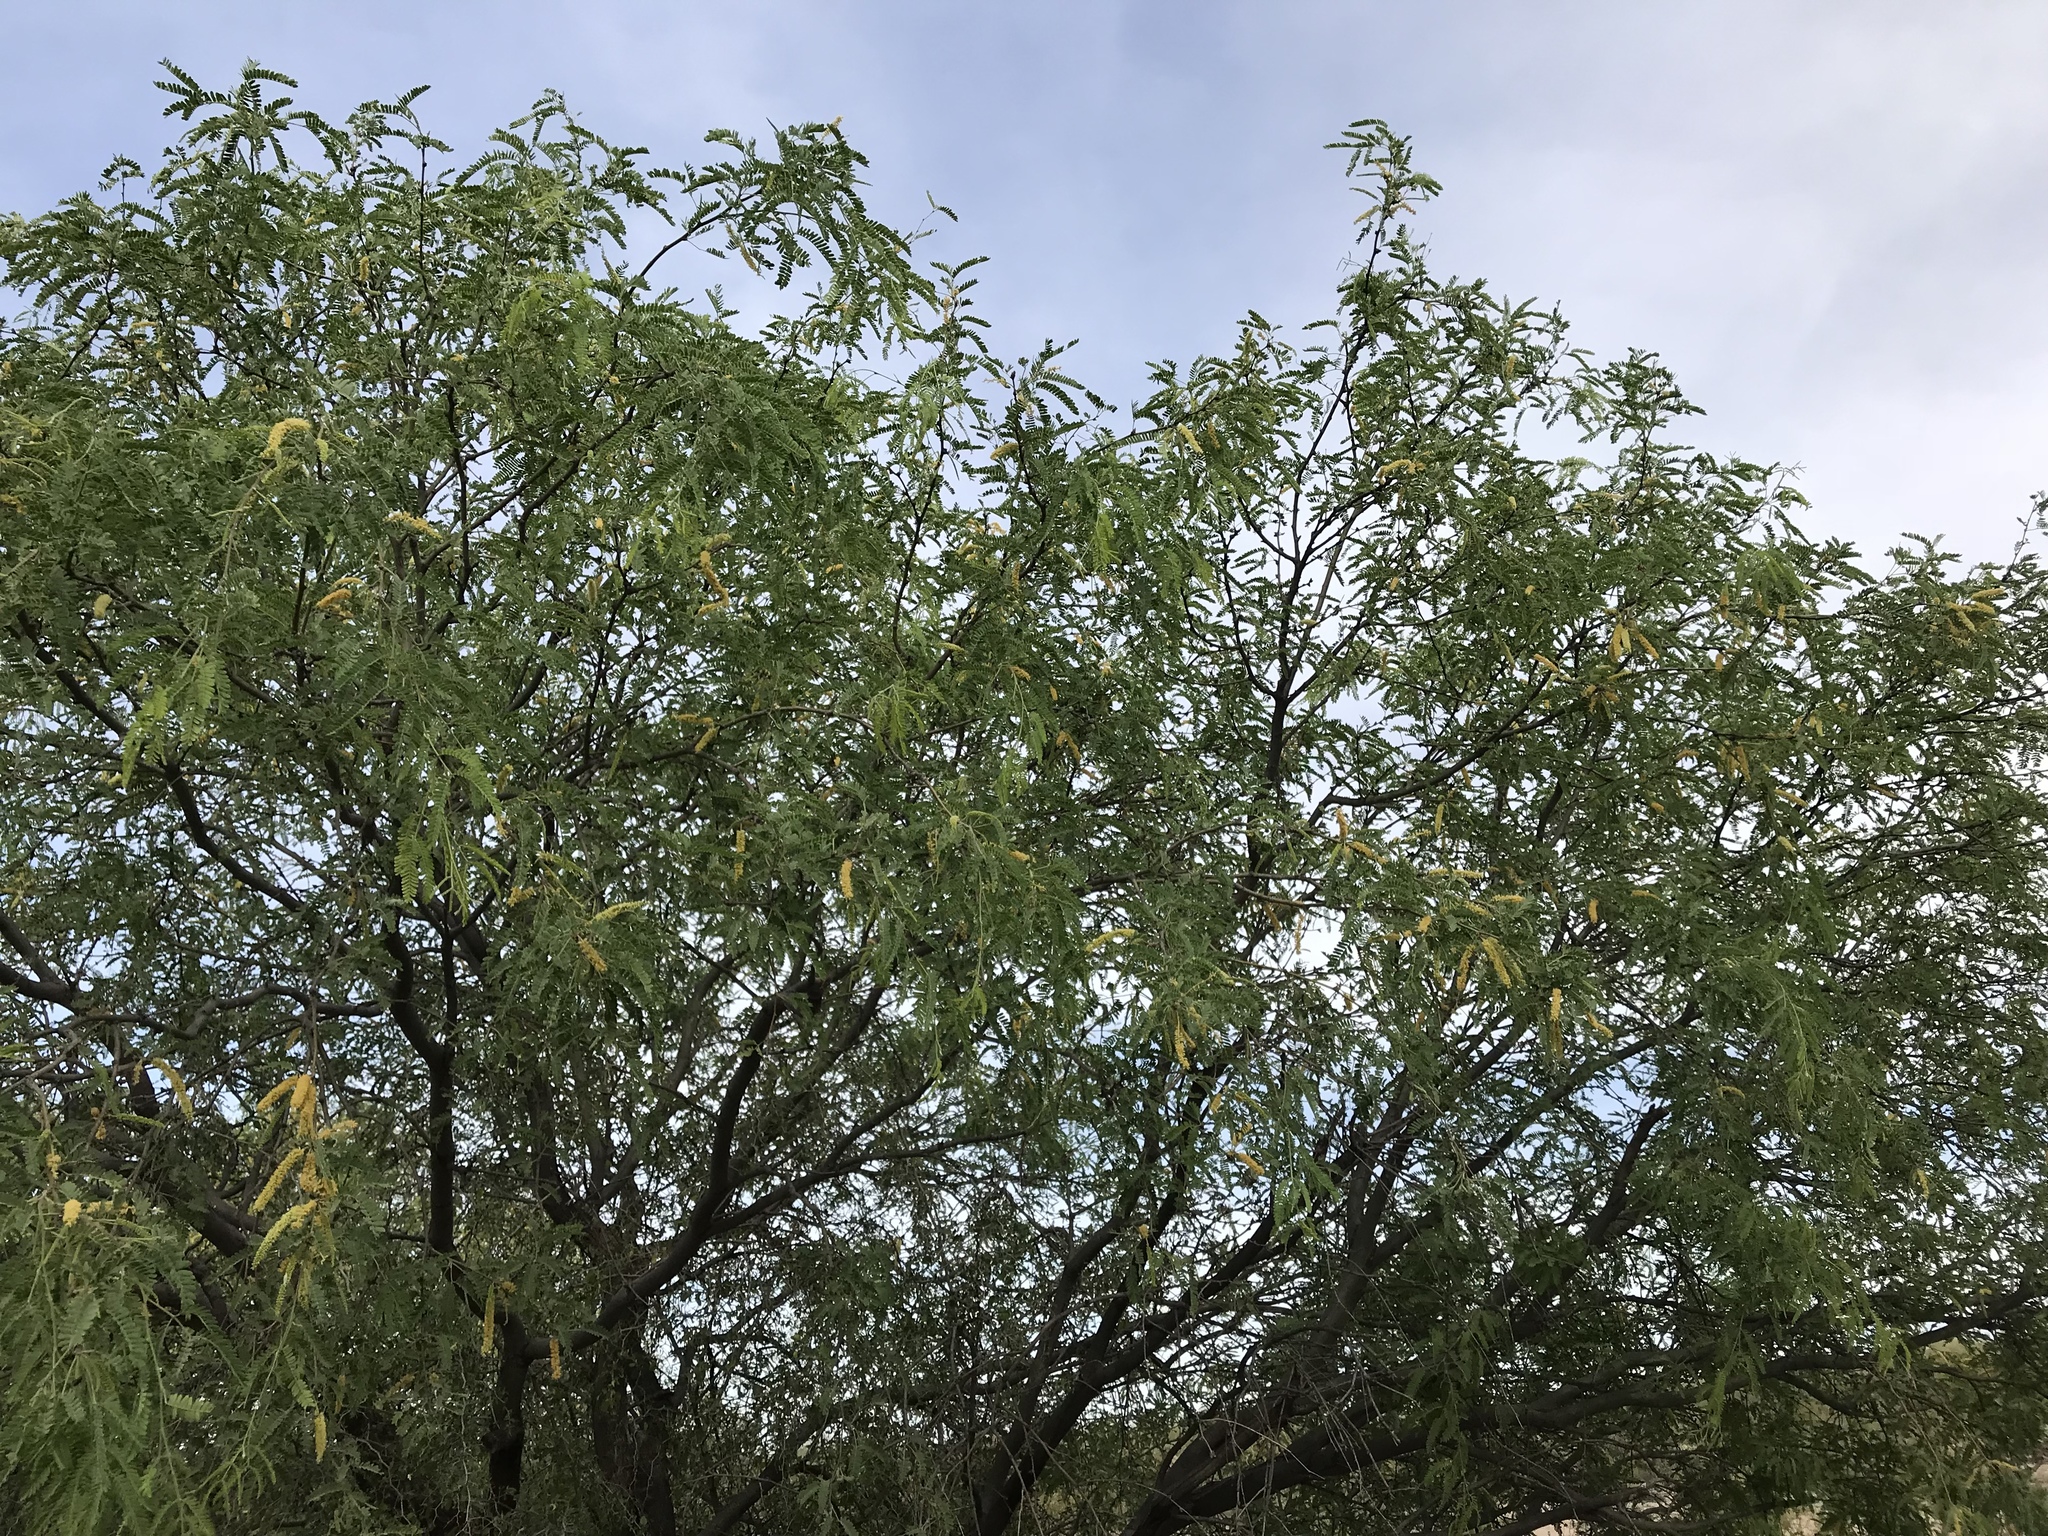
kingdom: Plantae
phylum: Tracheophyta
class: Magnoliopsida
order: Fabales
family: Fabaceae
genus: Prosopis
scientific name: Prosopis velutina
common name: Velvet mesquite
